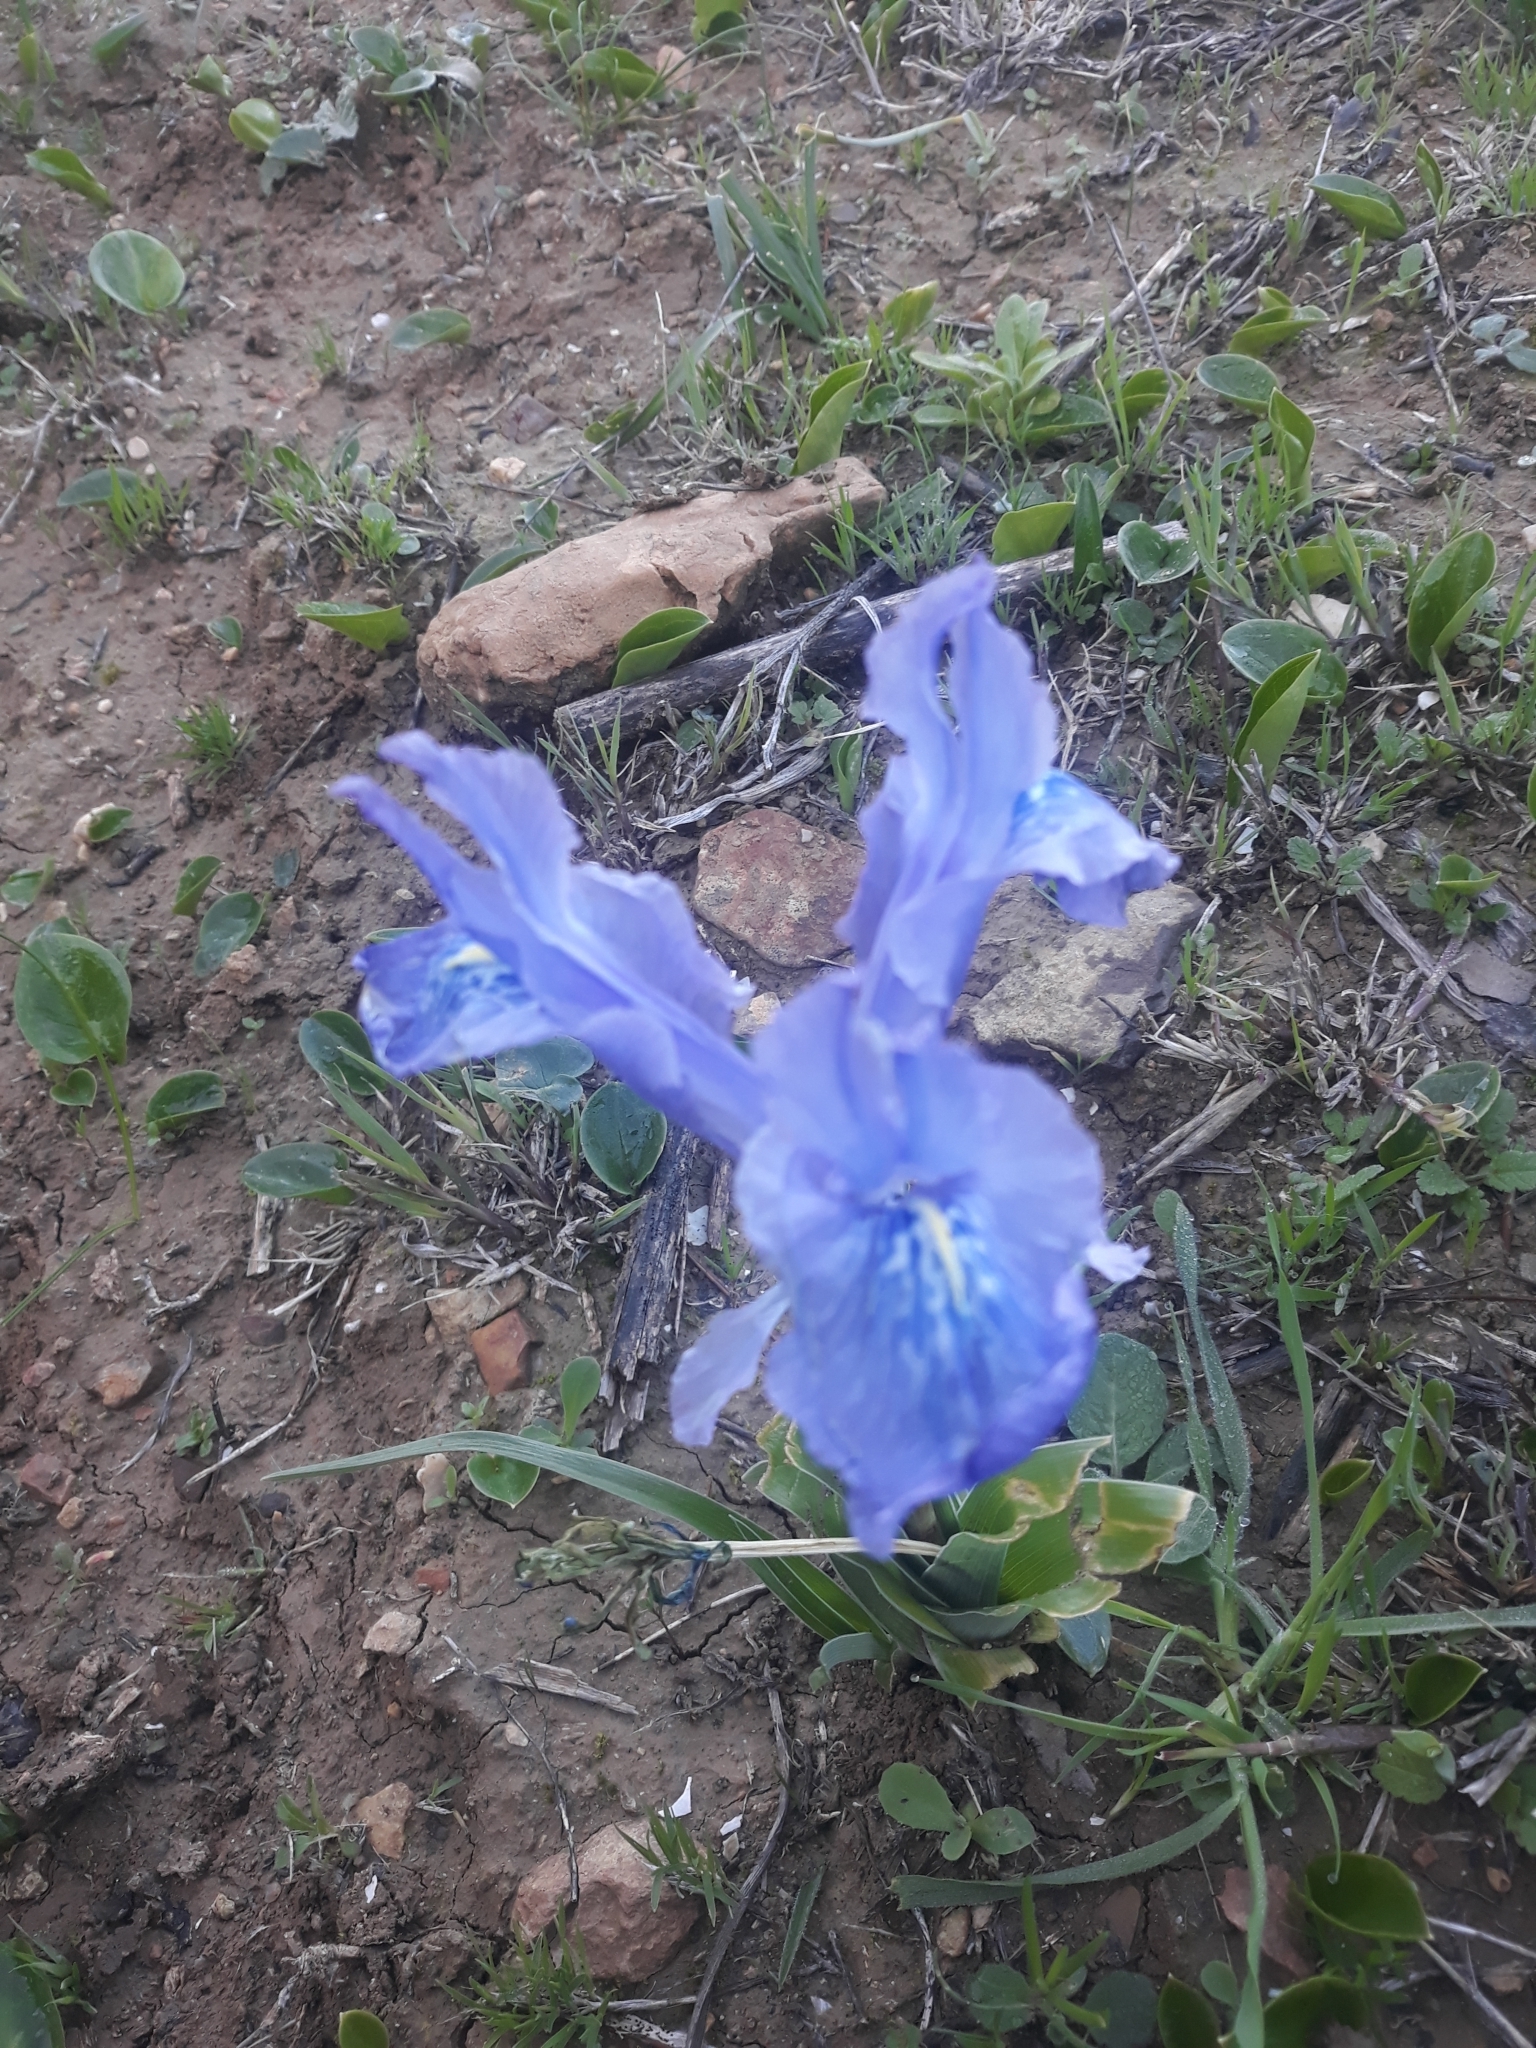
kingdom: Plantae
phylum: Tracheophyta
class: Liliopsida
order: Asparagales
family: Iridaceae
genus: Iris
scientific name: Iris planifolia
